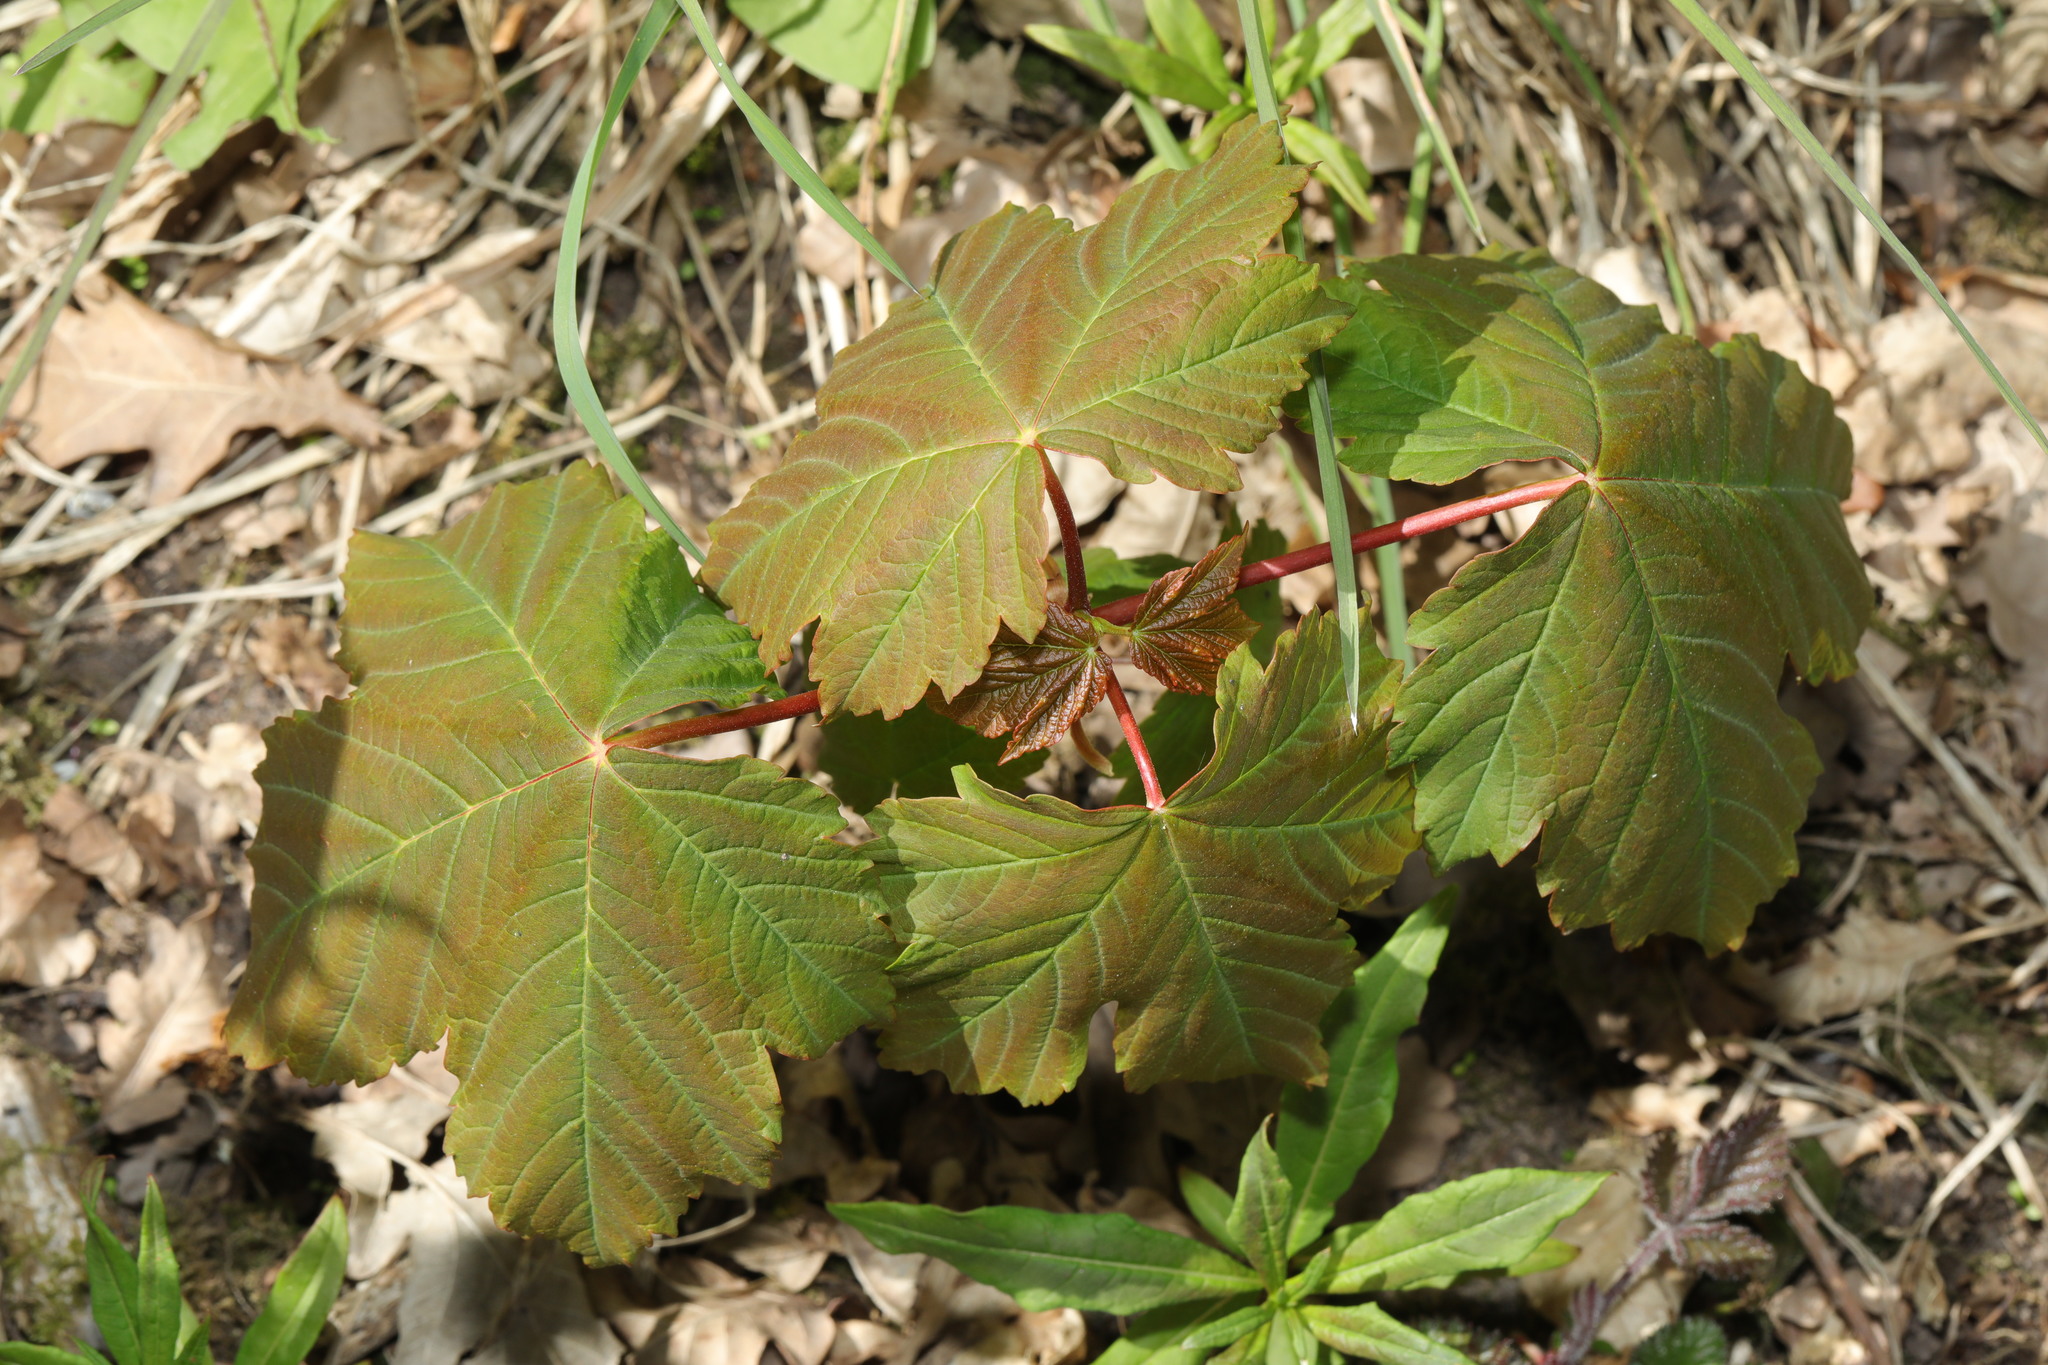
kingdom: Plantae
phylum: Tracheophyta
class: Magnoliopsida
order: Sapindales
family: Sapindaceae
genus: Acer
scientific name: Acer pseudoplatanus
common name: Sycamore
